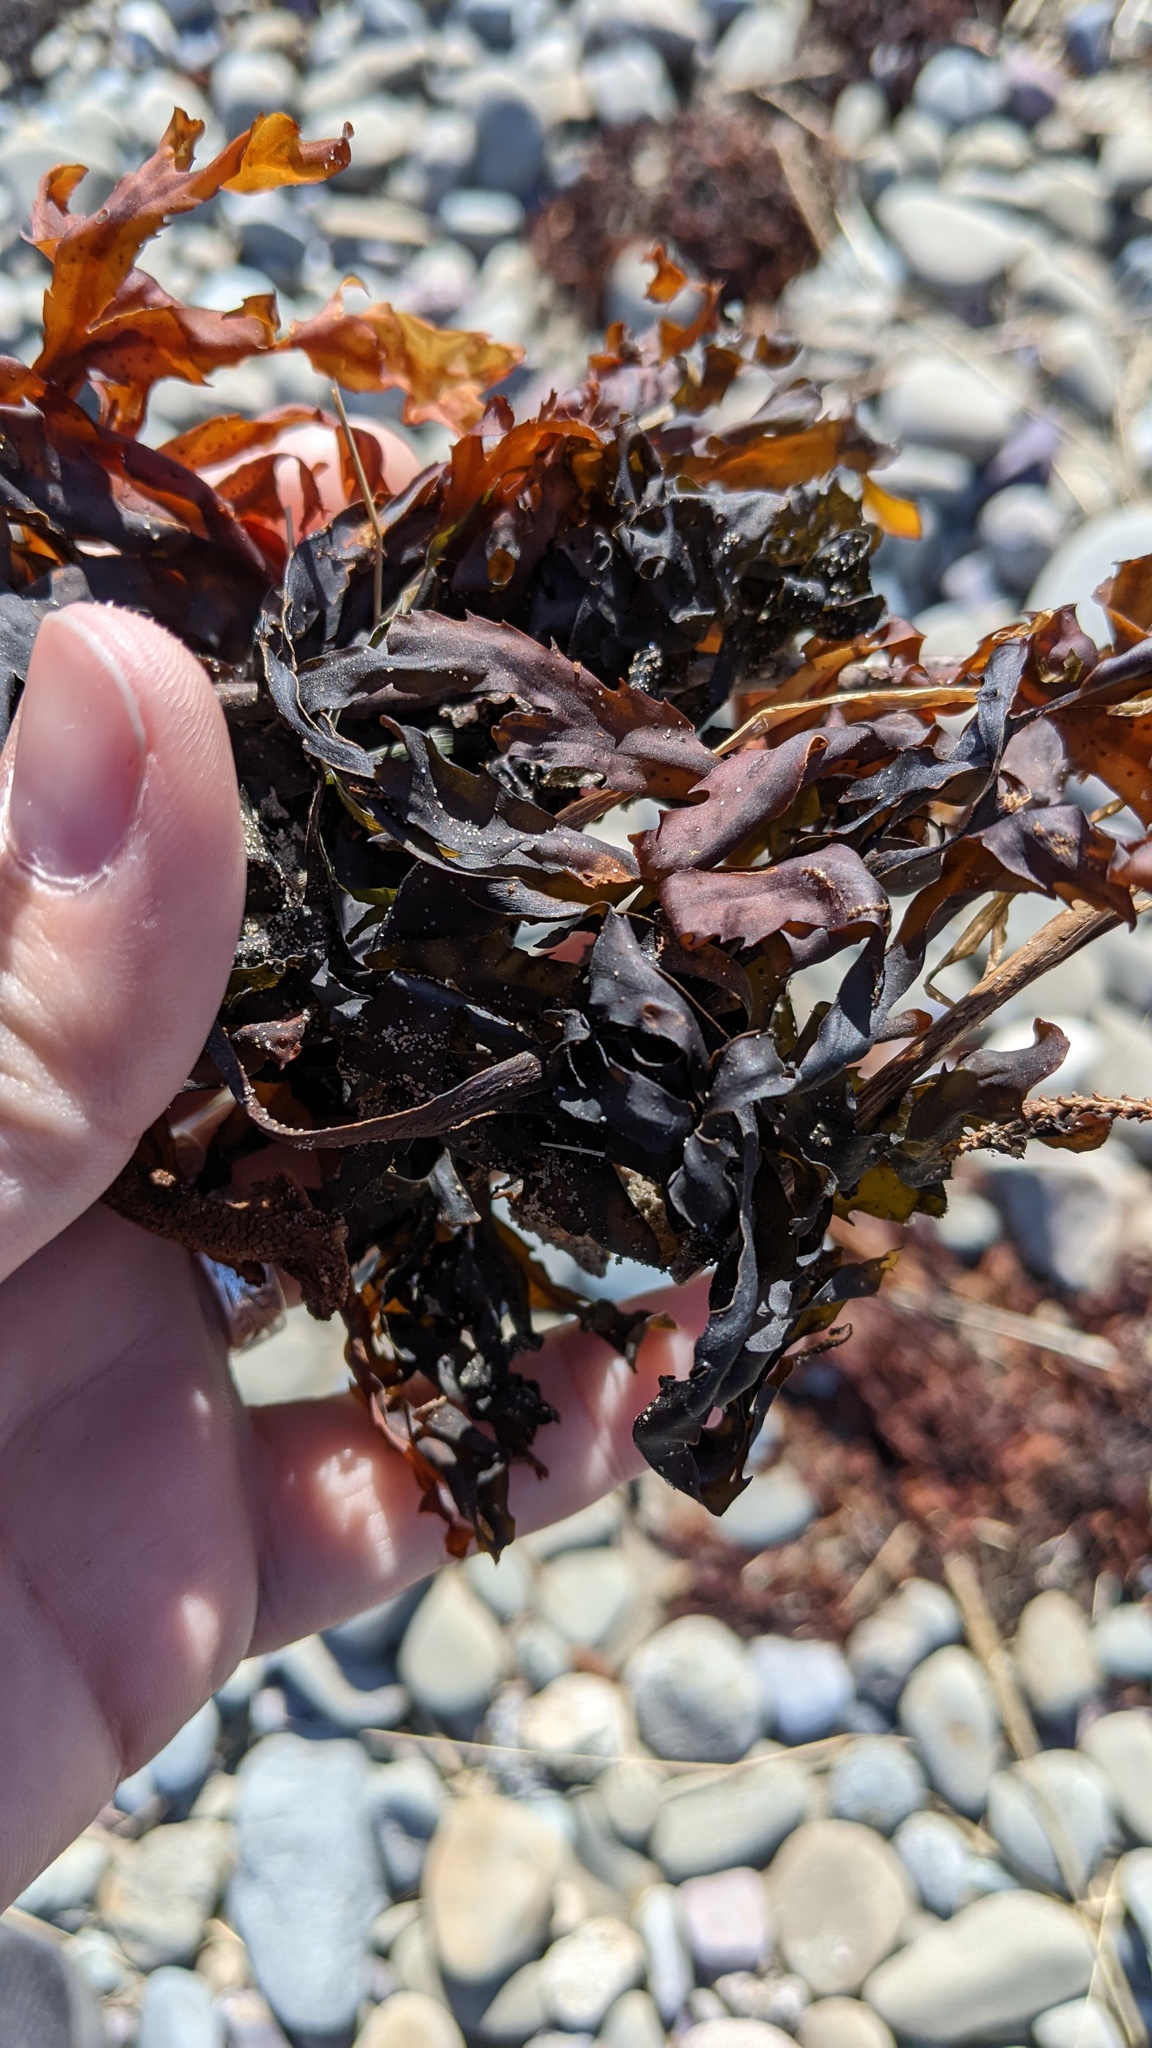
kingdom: Chromista
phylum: Ochrophyta
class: Phaeophyceae
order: Fucales
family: Fucaceae
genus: Fucus
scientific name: Fucus serratus
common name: Toothed wrack
